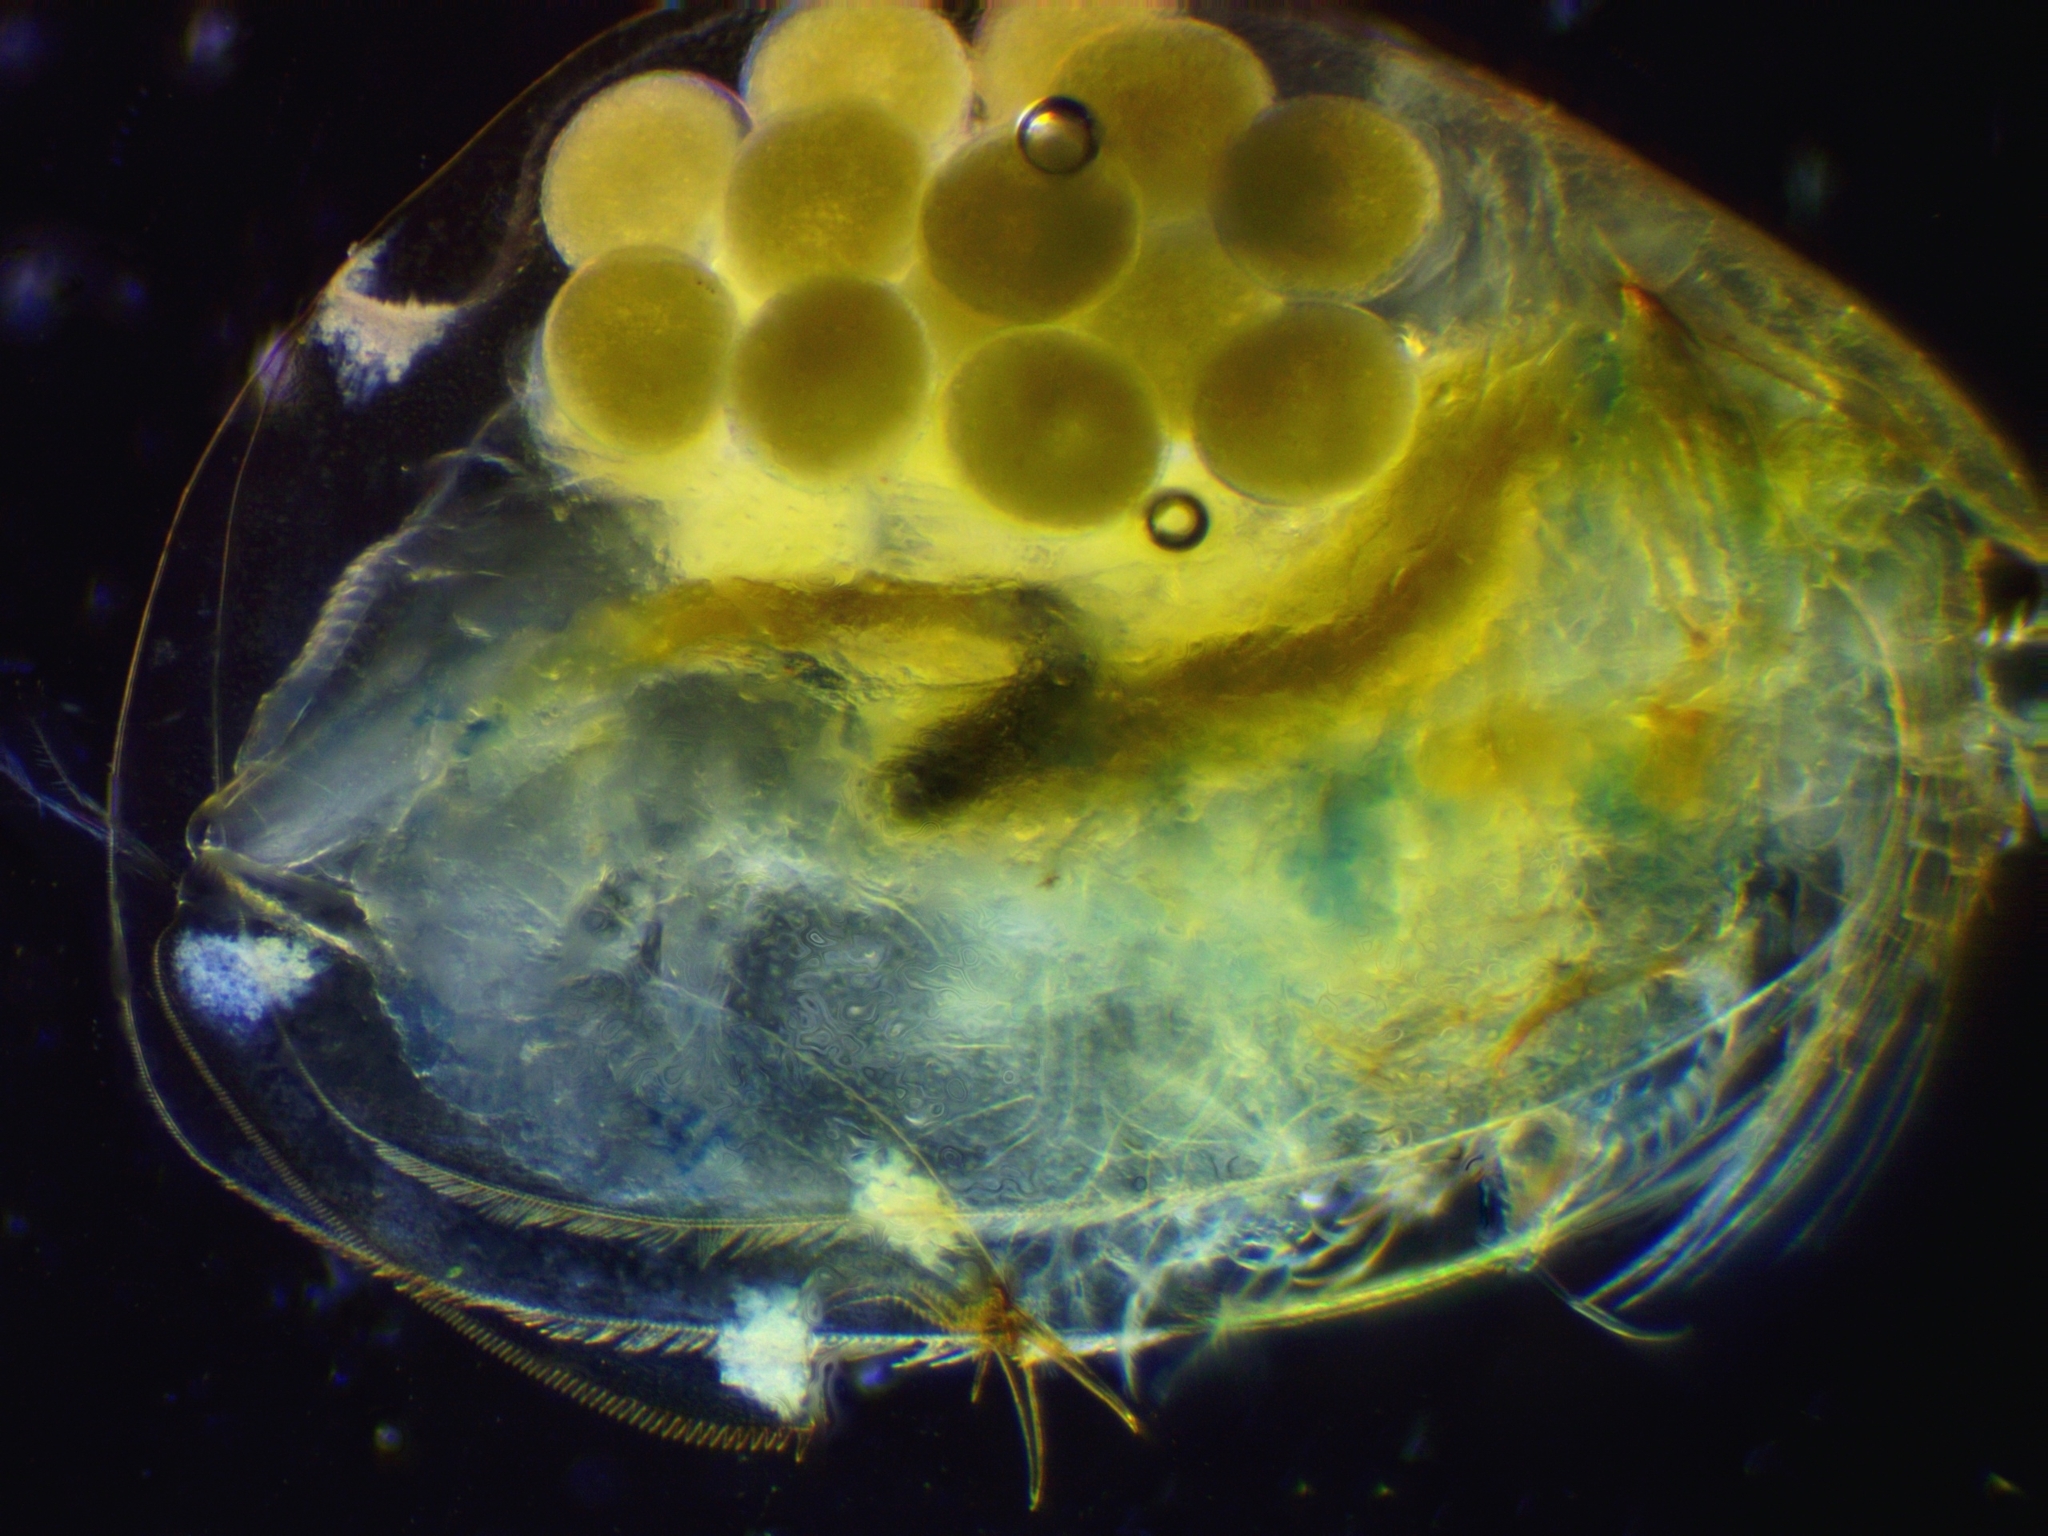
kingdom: Animalia
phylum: Arthropoda
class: Branchiopoda
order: Diplostraca
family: Eurycercidae
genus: Eurycercus
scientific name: Eurycercus lamellatus
